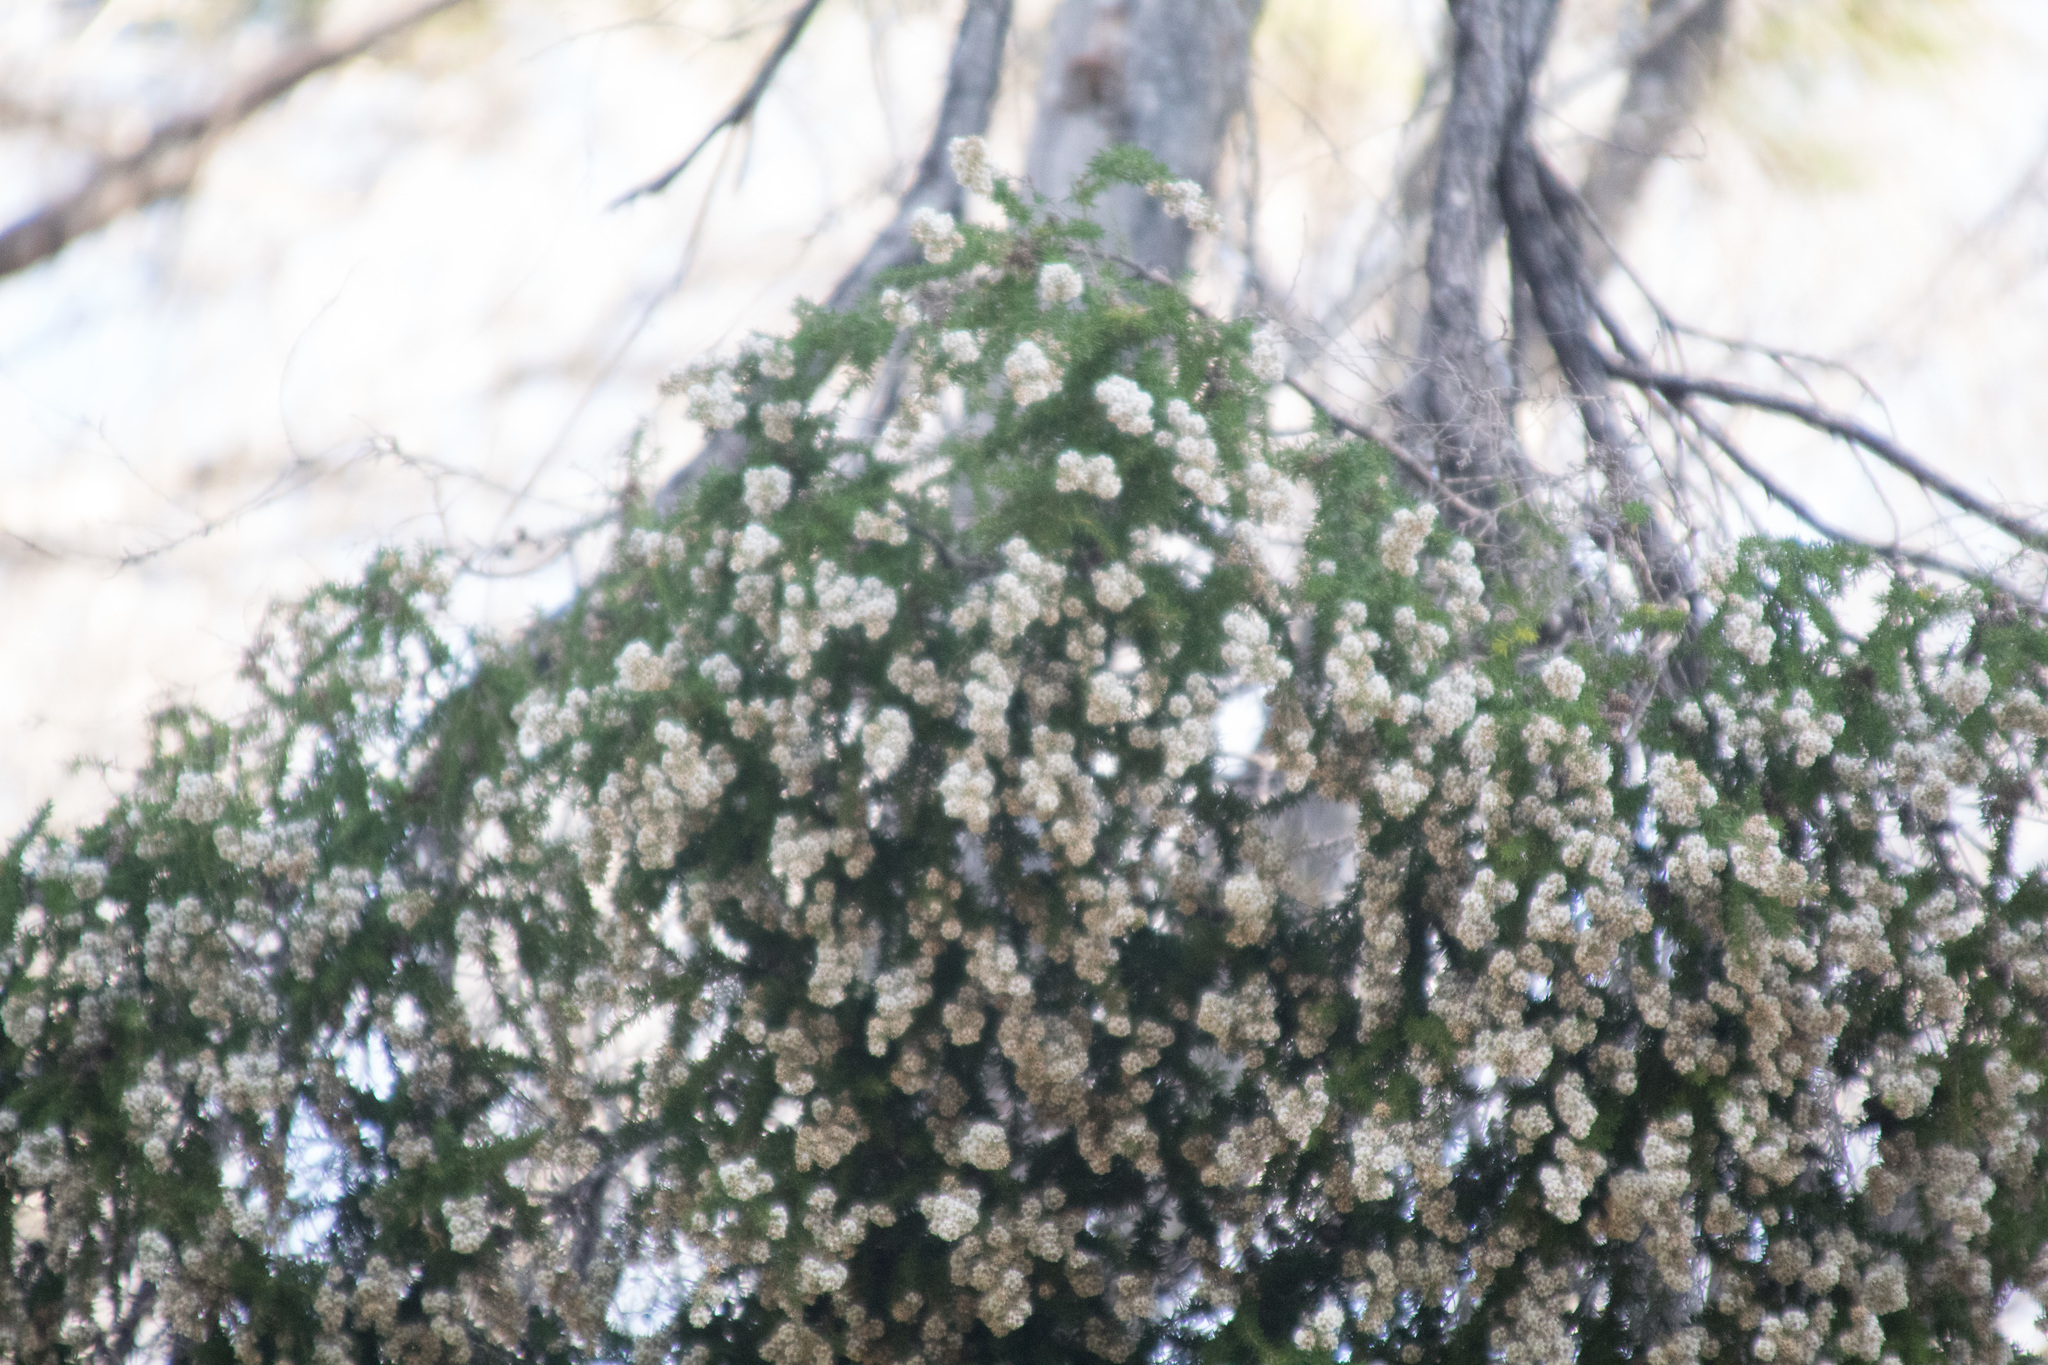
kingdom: Plantae
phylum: Tracheophyta
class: Magnoliopsida
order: Myrtales
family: Myrtaceae
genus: Taxandria
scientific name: Taxandria juniperina
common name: Warren river-cedar
